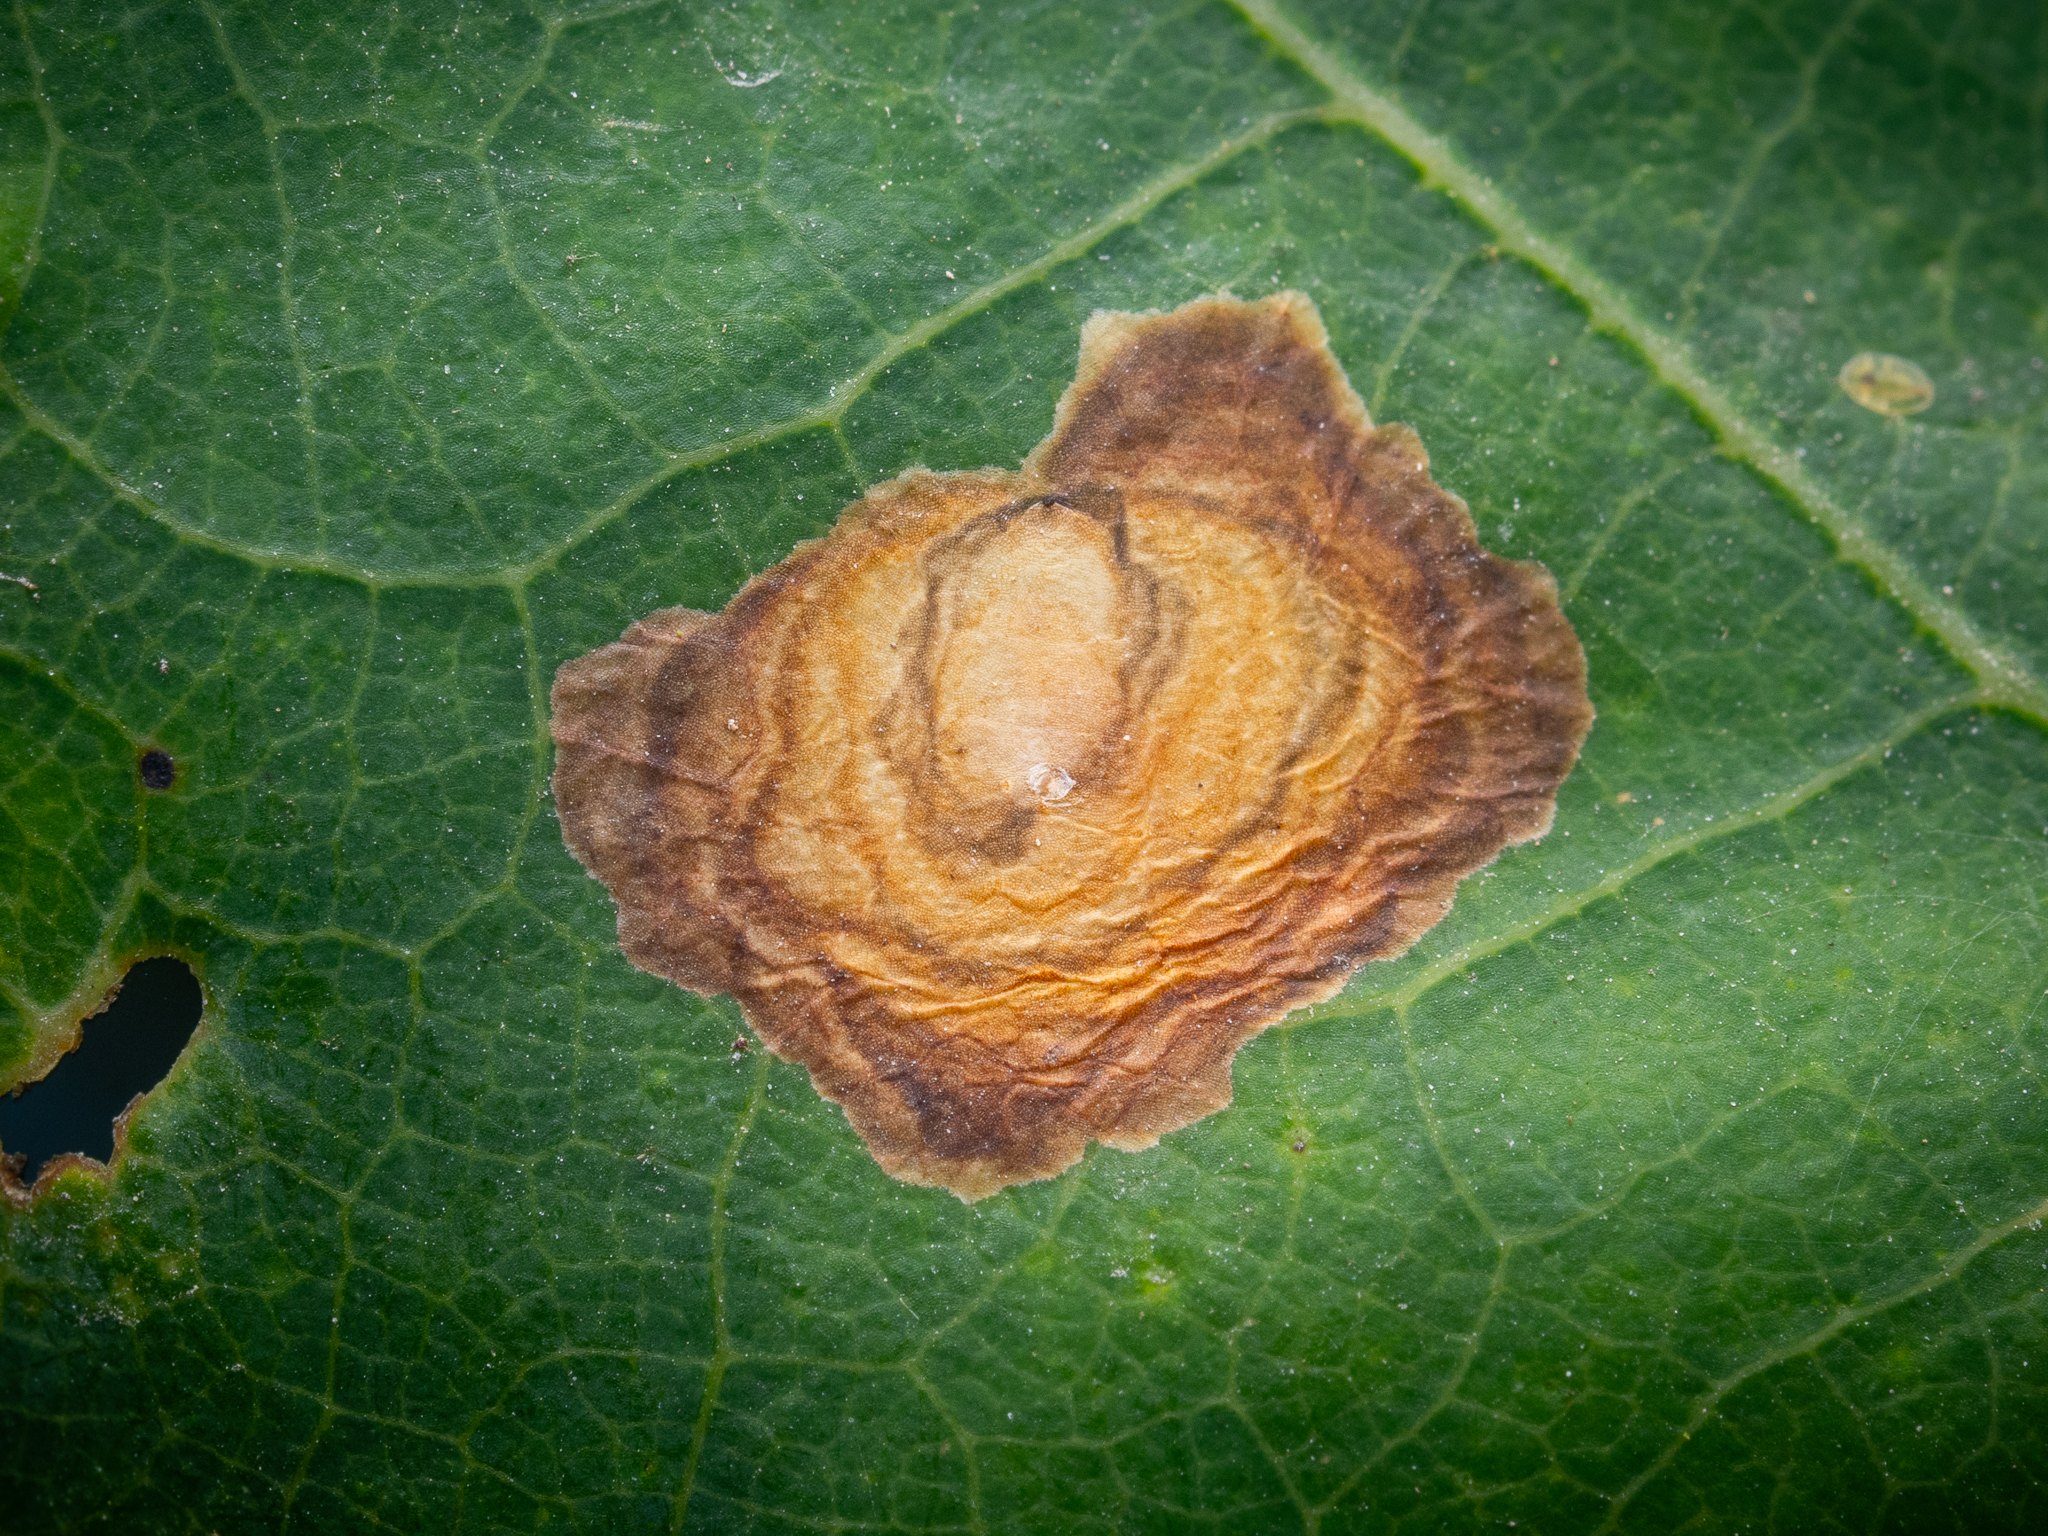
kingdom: Animalia
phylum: Arthropoda
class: Insecta
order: Lepidoptera
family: Tischeriidae
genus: Tischeria
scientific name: Tischeria dodonaea
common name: Small carl
